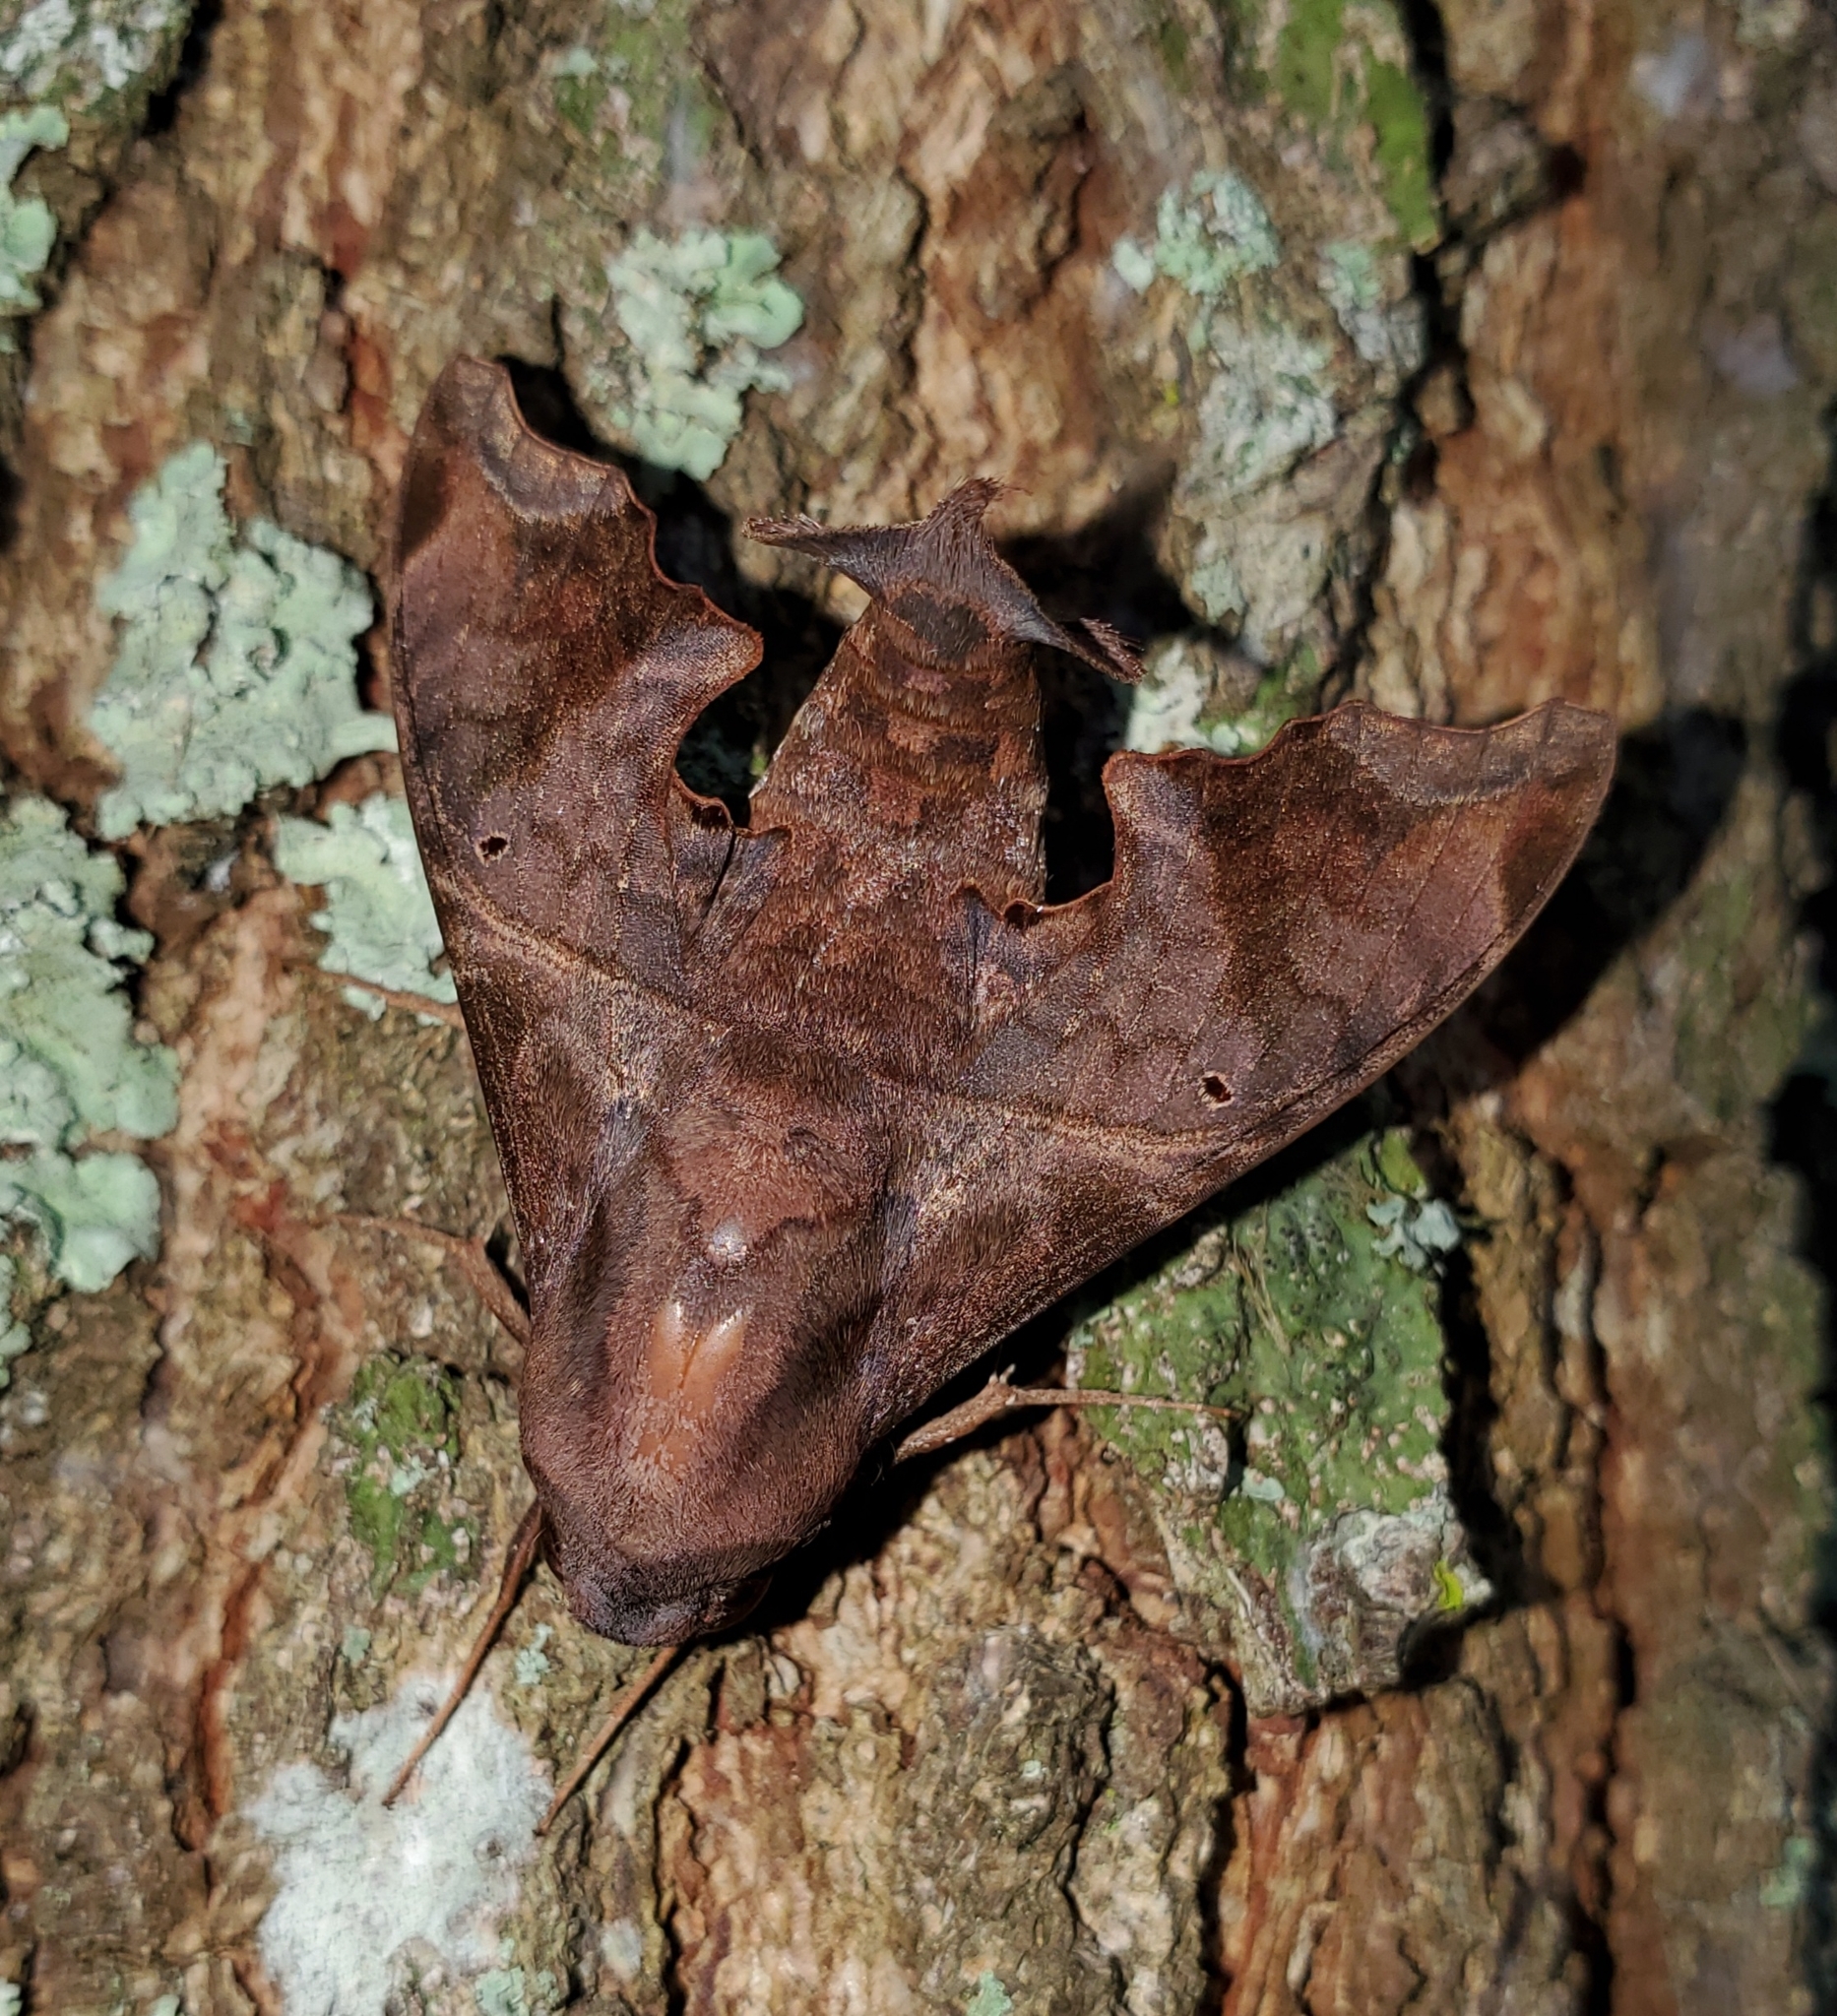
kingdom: Animalia
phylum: Arthropoda
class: Insecta
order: Lepidoptera
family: Sphingidae
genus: Enyo
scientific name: Enyo lugubris
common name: Mournful sphinx
